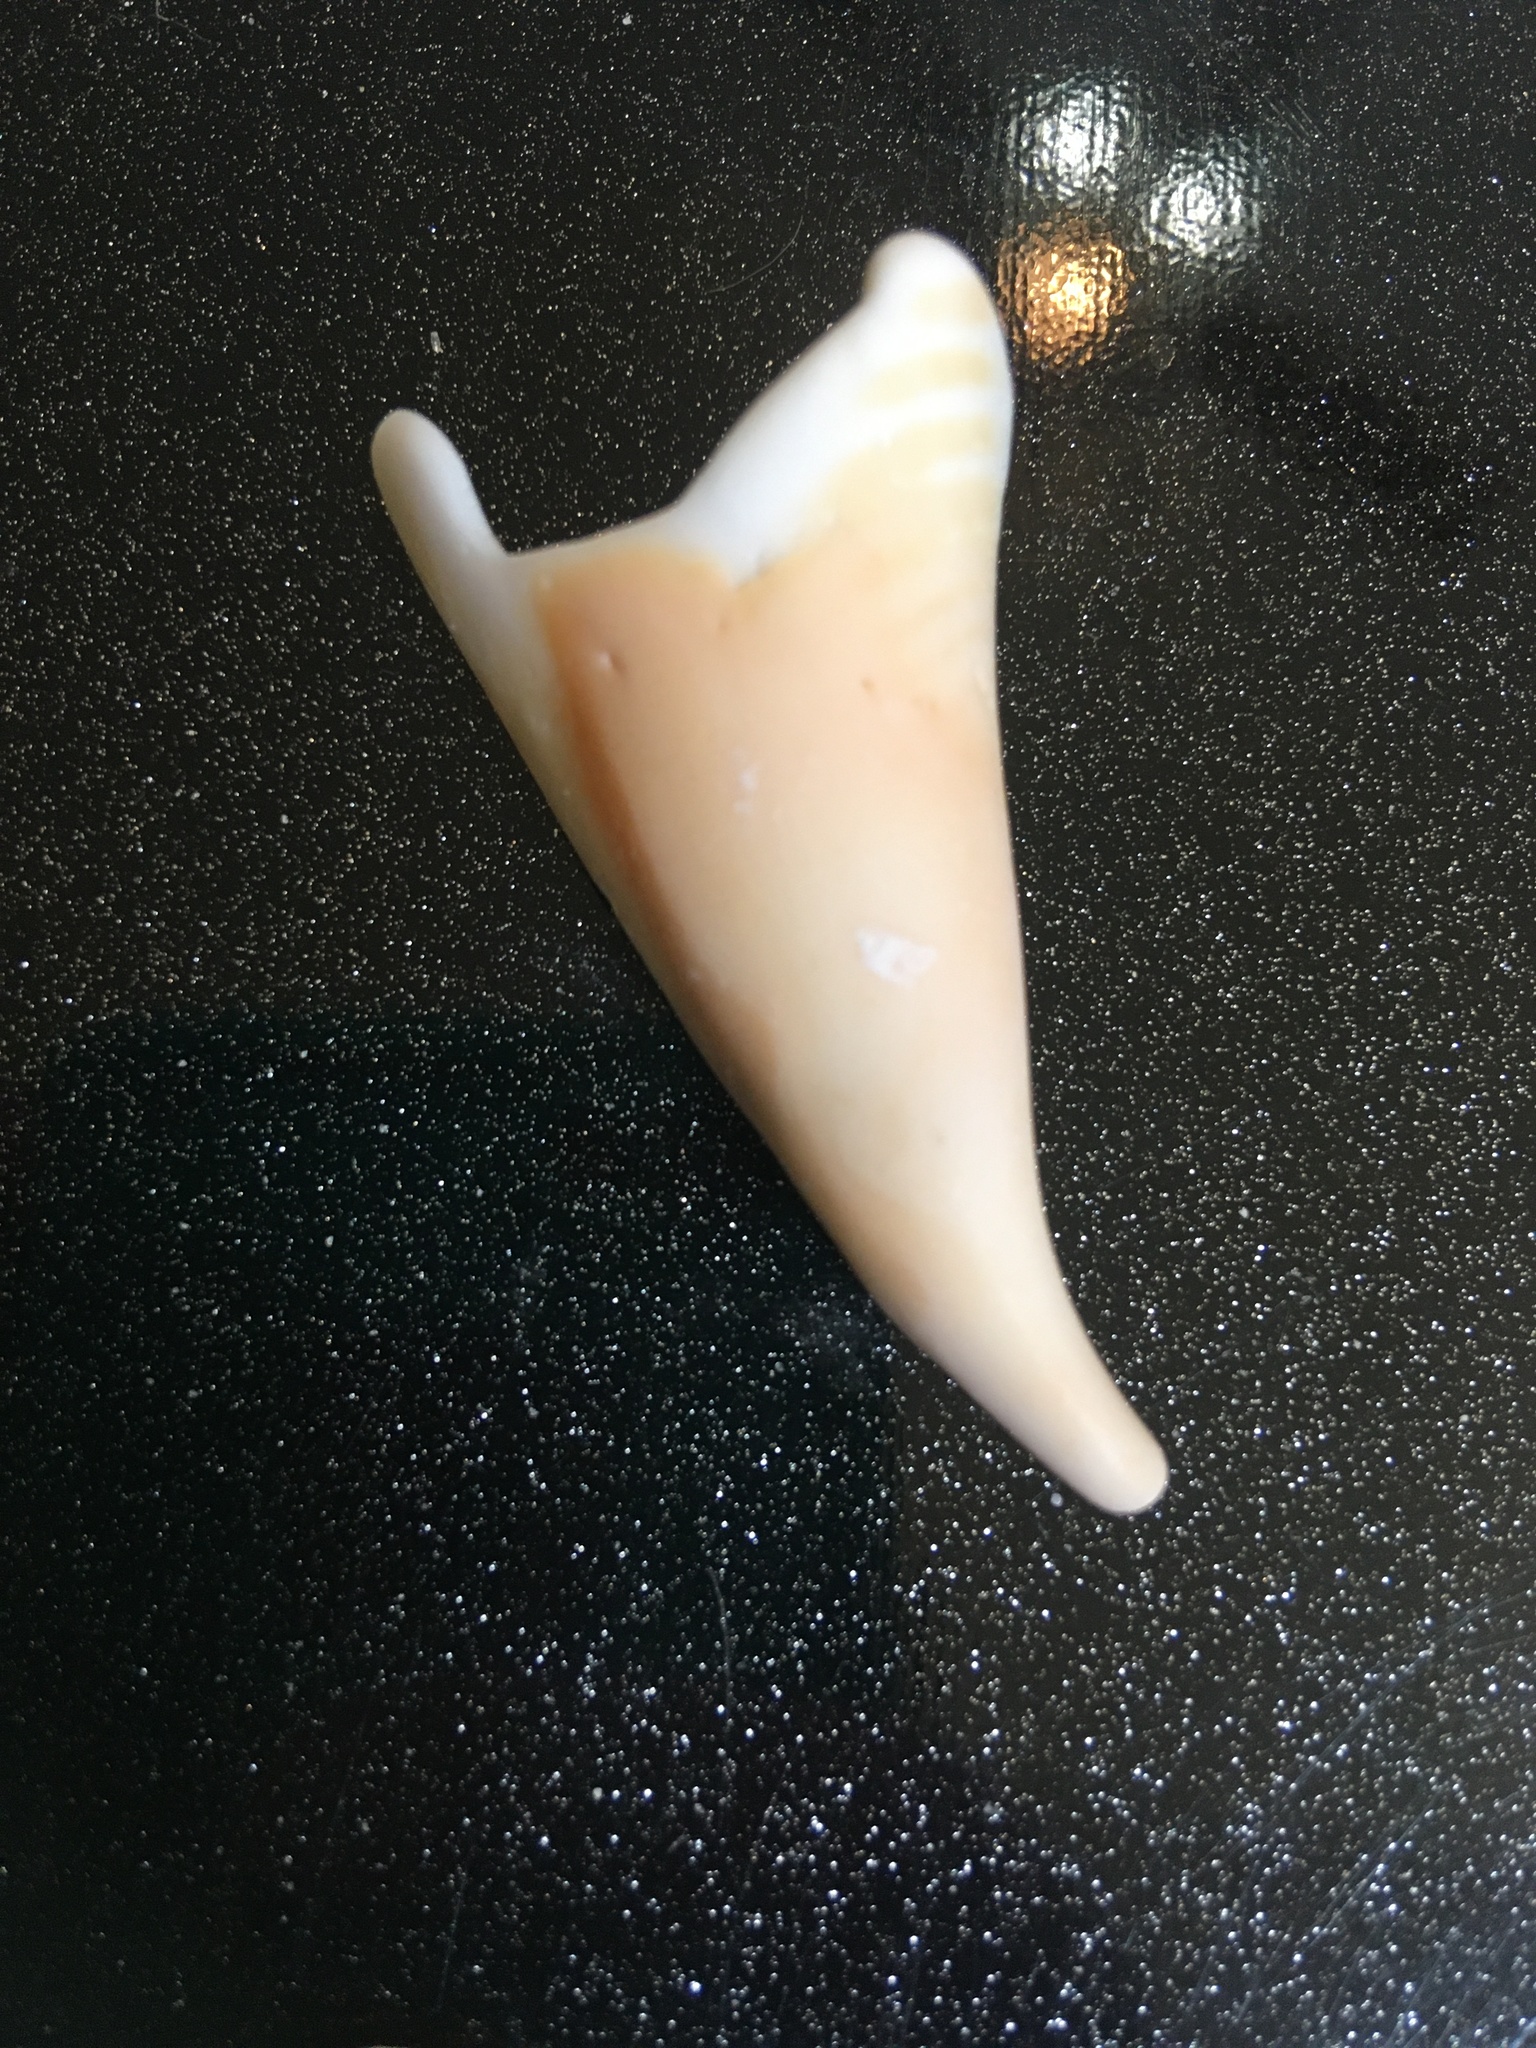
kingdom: Animalia
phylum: Mollusca
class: Gastropoda
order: Littorinimorpha
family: Strombidae
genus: Strombus
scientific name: Strombus alatus
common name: Florida fighting conch
